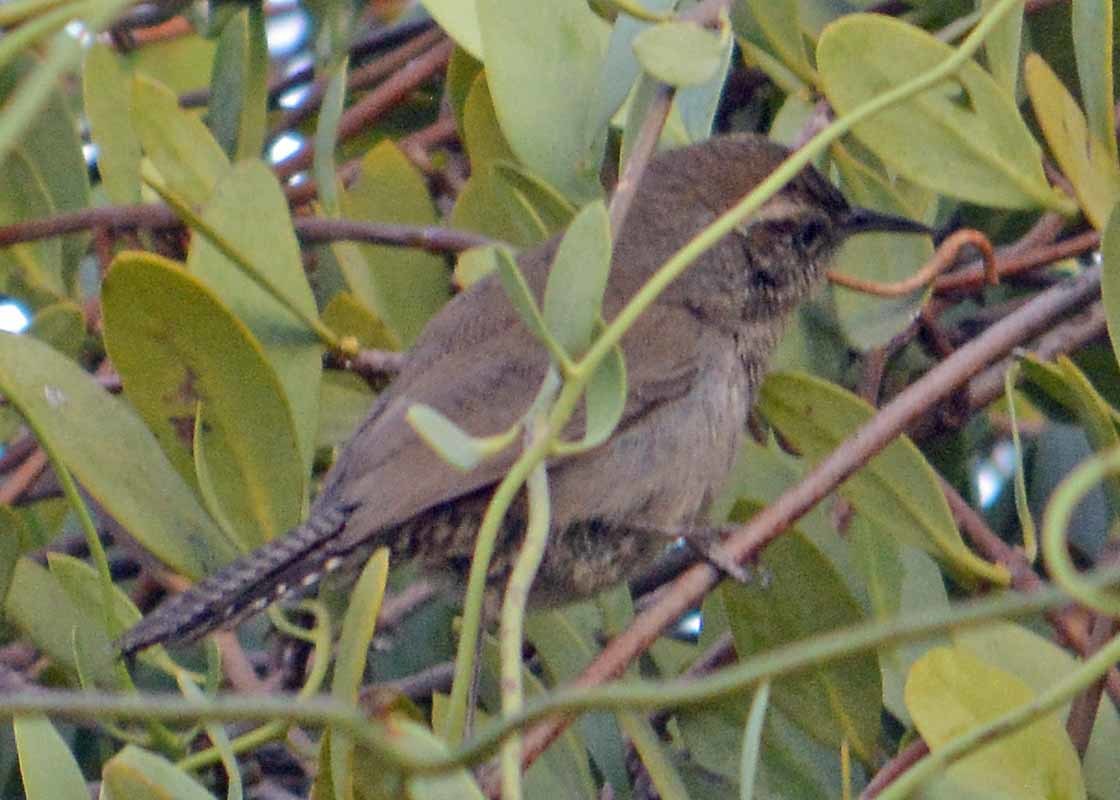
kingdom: Animalia
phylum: Chordata
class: Aves
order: Passeriformes
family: Troglodytidae
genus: Thryomanes
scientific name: Thryomanes bewickii
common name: Bewick's wren
